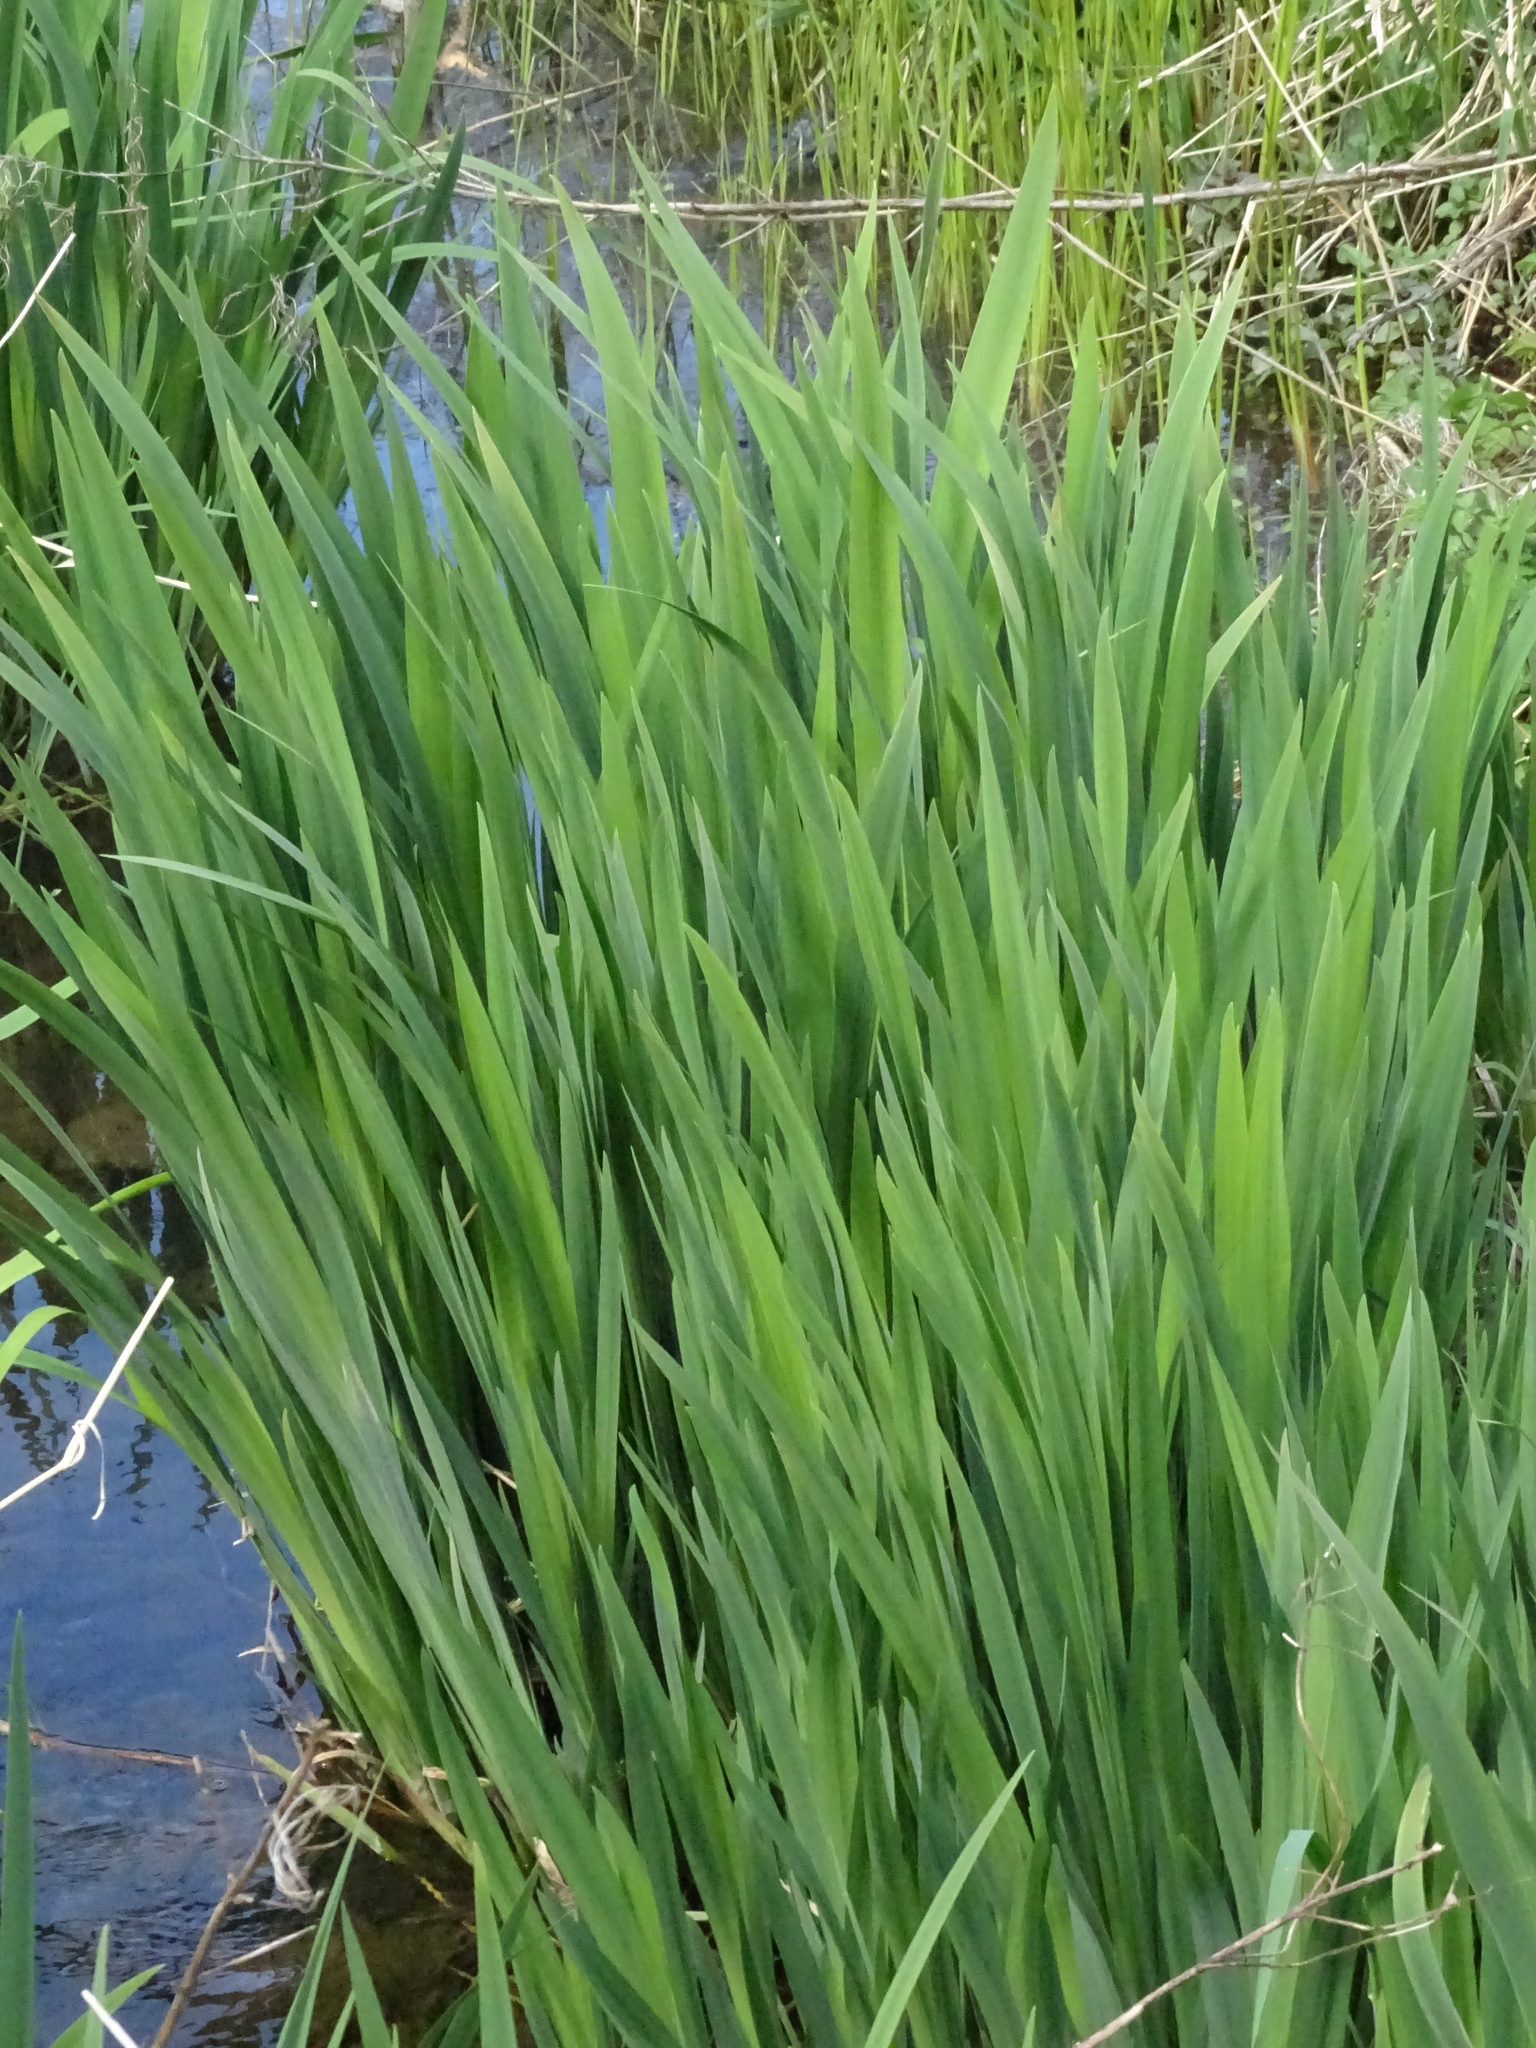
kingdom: Plantae
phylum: Tracheophyta
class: Liliopsida
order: Asparagales
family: Iridaceae
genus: Iris
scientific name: Iris pseudacorus
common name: Yellow flag
